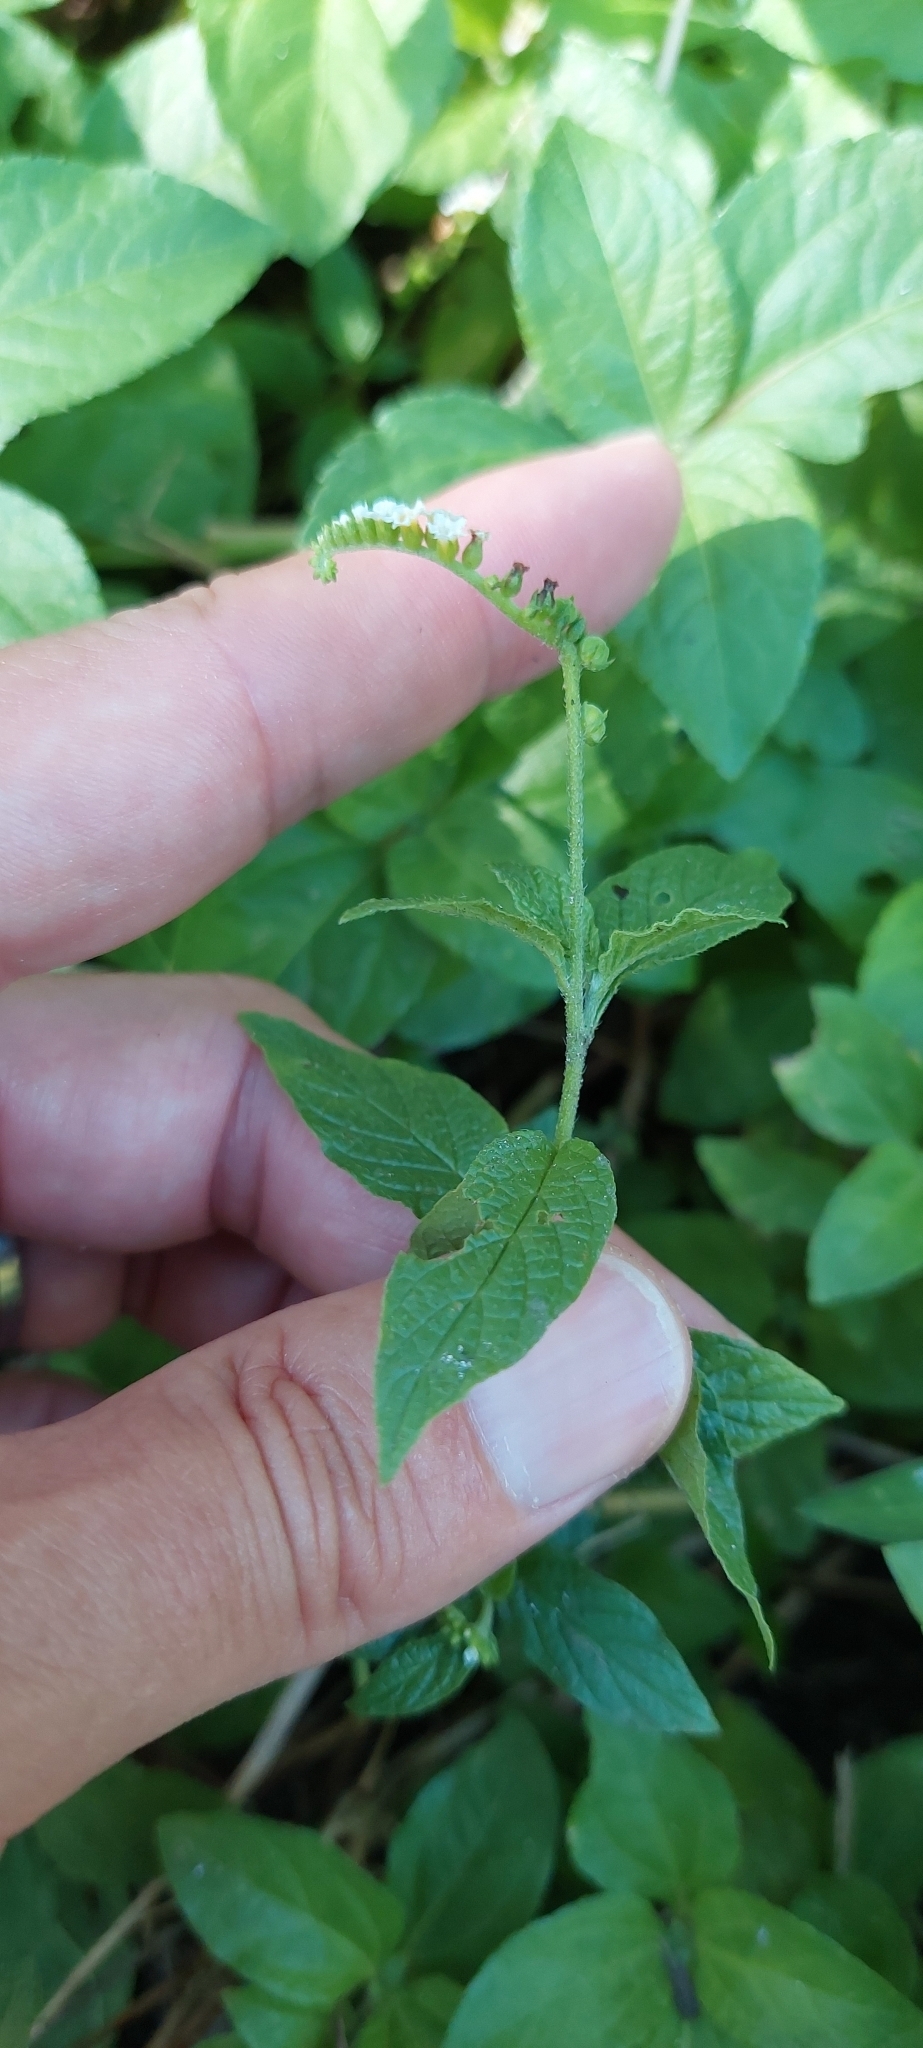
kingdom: Plantae
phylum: Tracheophyta
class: Magnoliopsida
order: Boraginales
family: Heliotropiaceae
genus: Heliotropium
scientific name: Heliotropium angiospermum
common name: Eye bright
